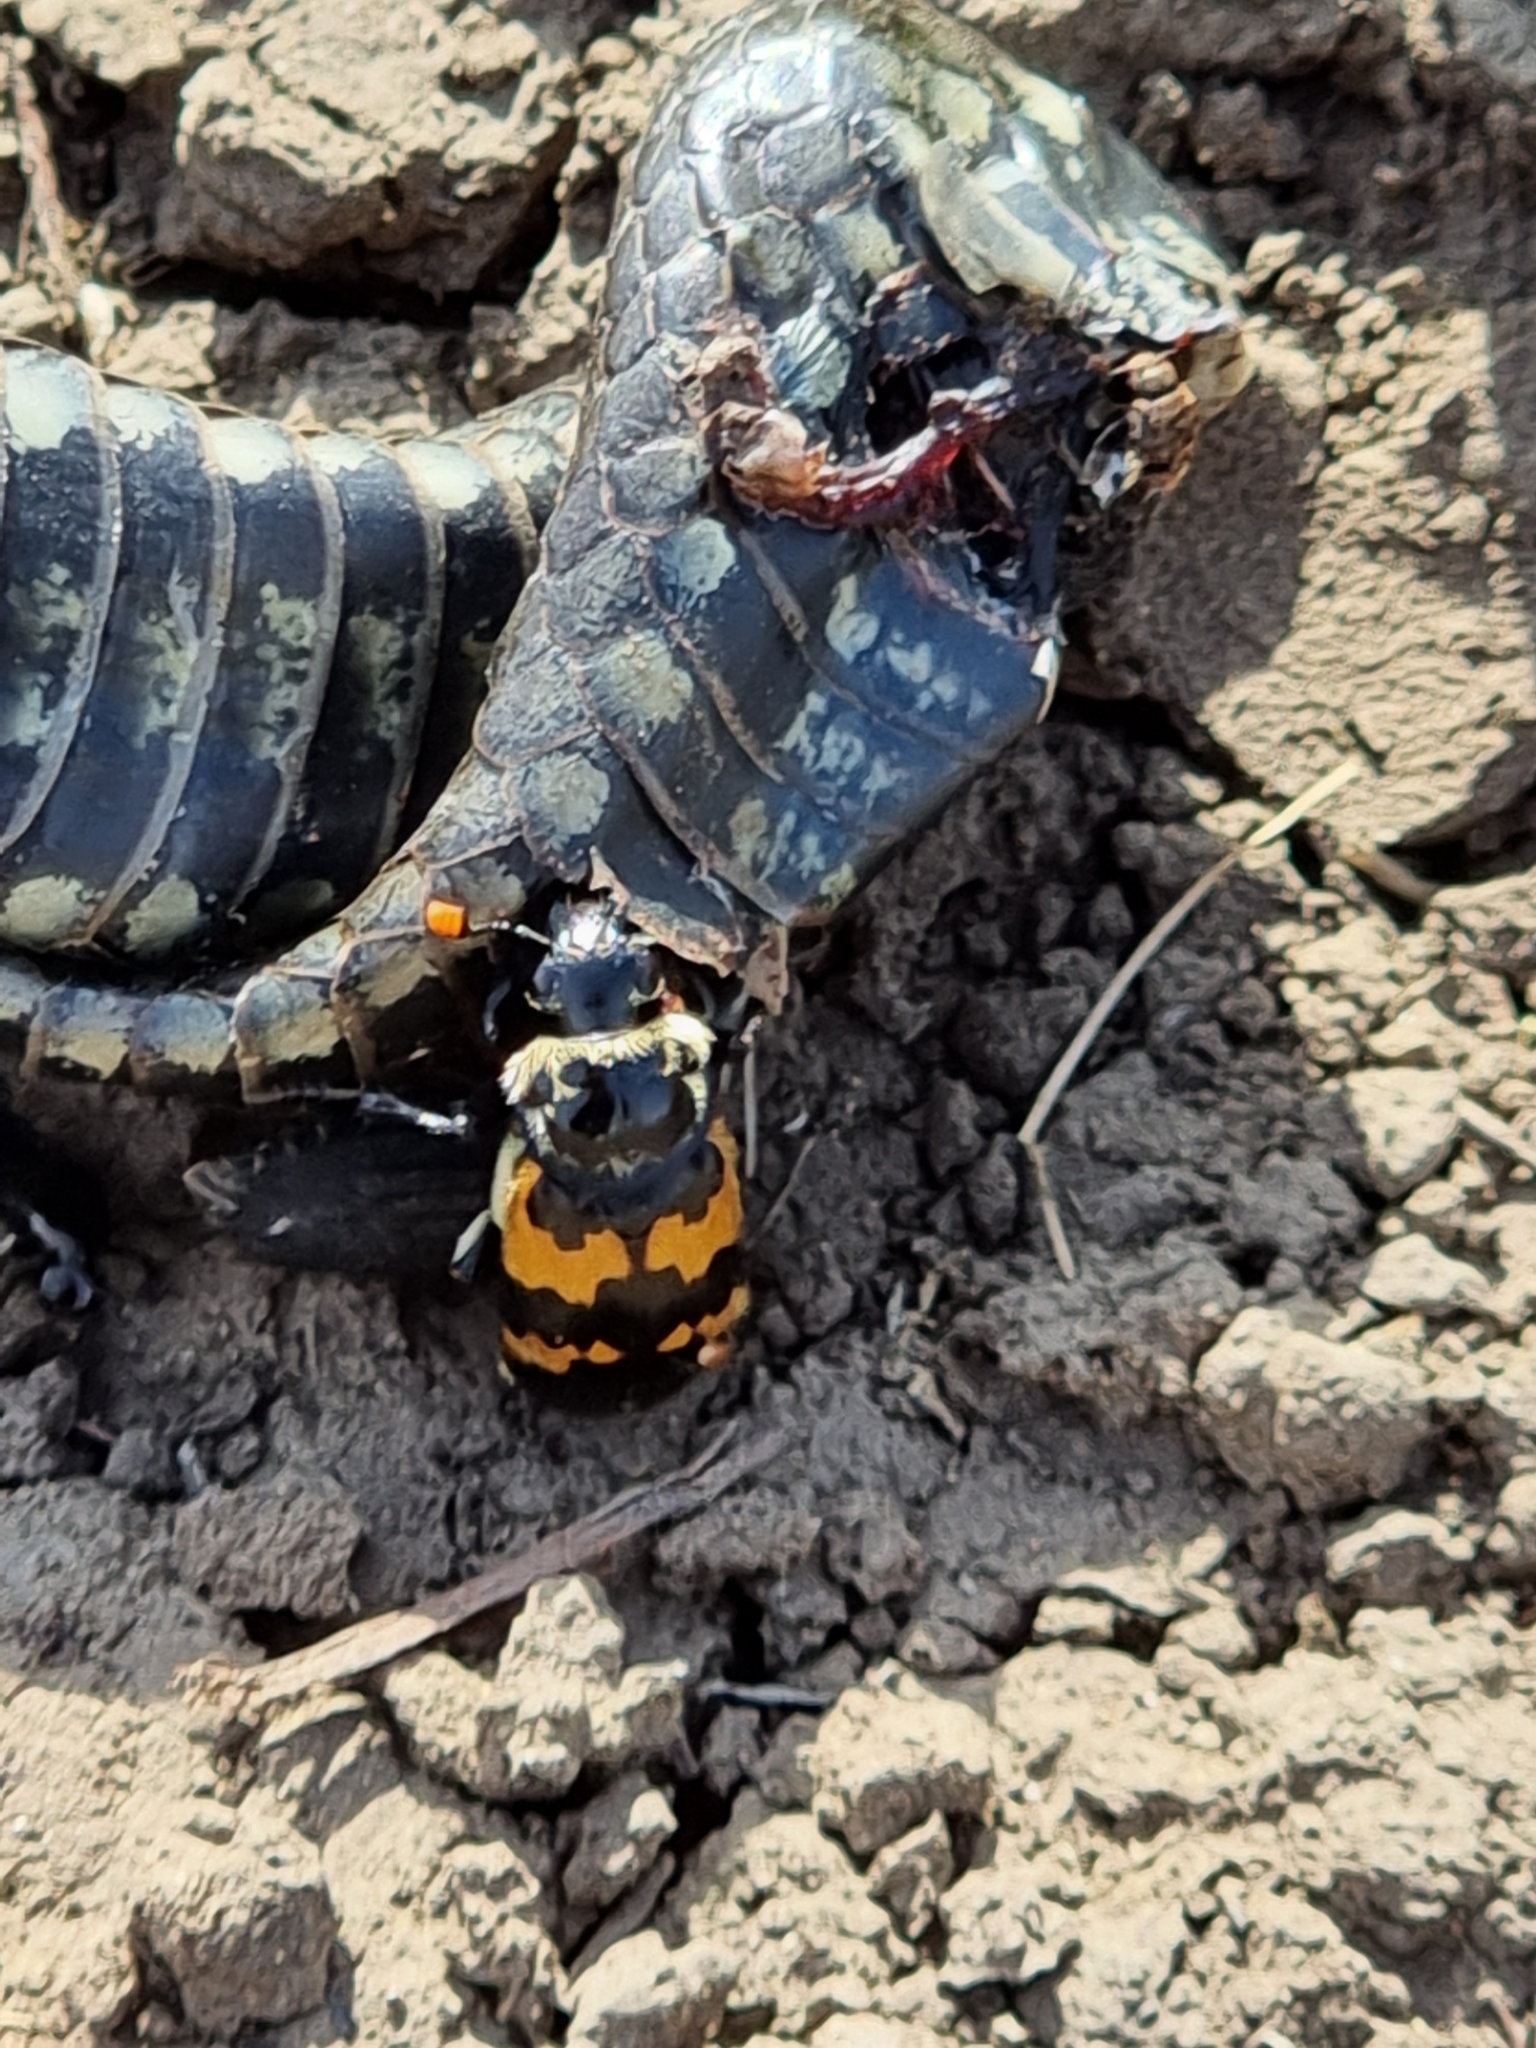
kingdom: Animalia
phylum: Chordata
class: Squamata
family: Colubridae
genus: Natrix
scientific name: Natrix natrix
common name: Grass snake
